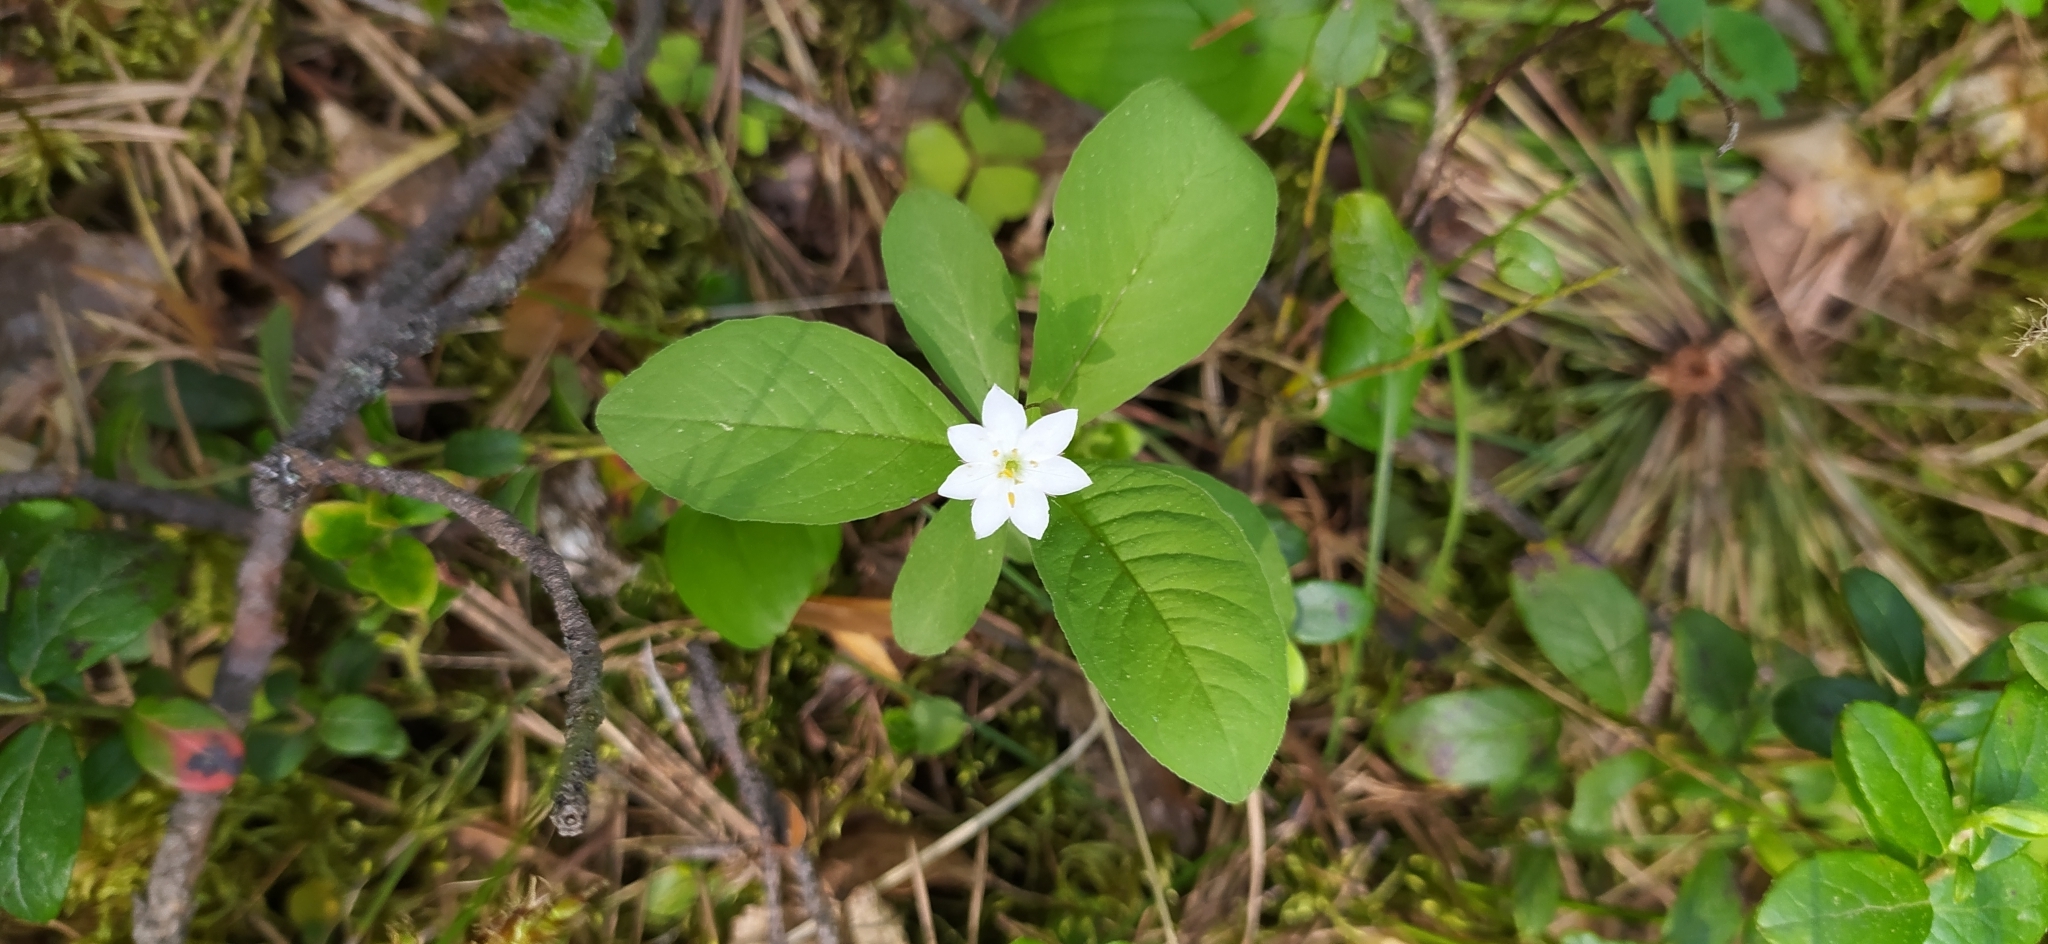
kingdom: Plantae
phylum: Tracheophyta
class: Magnoliopsida
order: Ericales
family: Primulaceae
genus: Lysimachia
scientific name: Lysimachia europaea
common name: Arctic starflower
